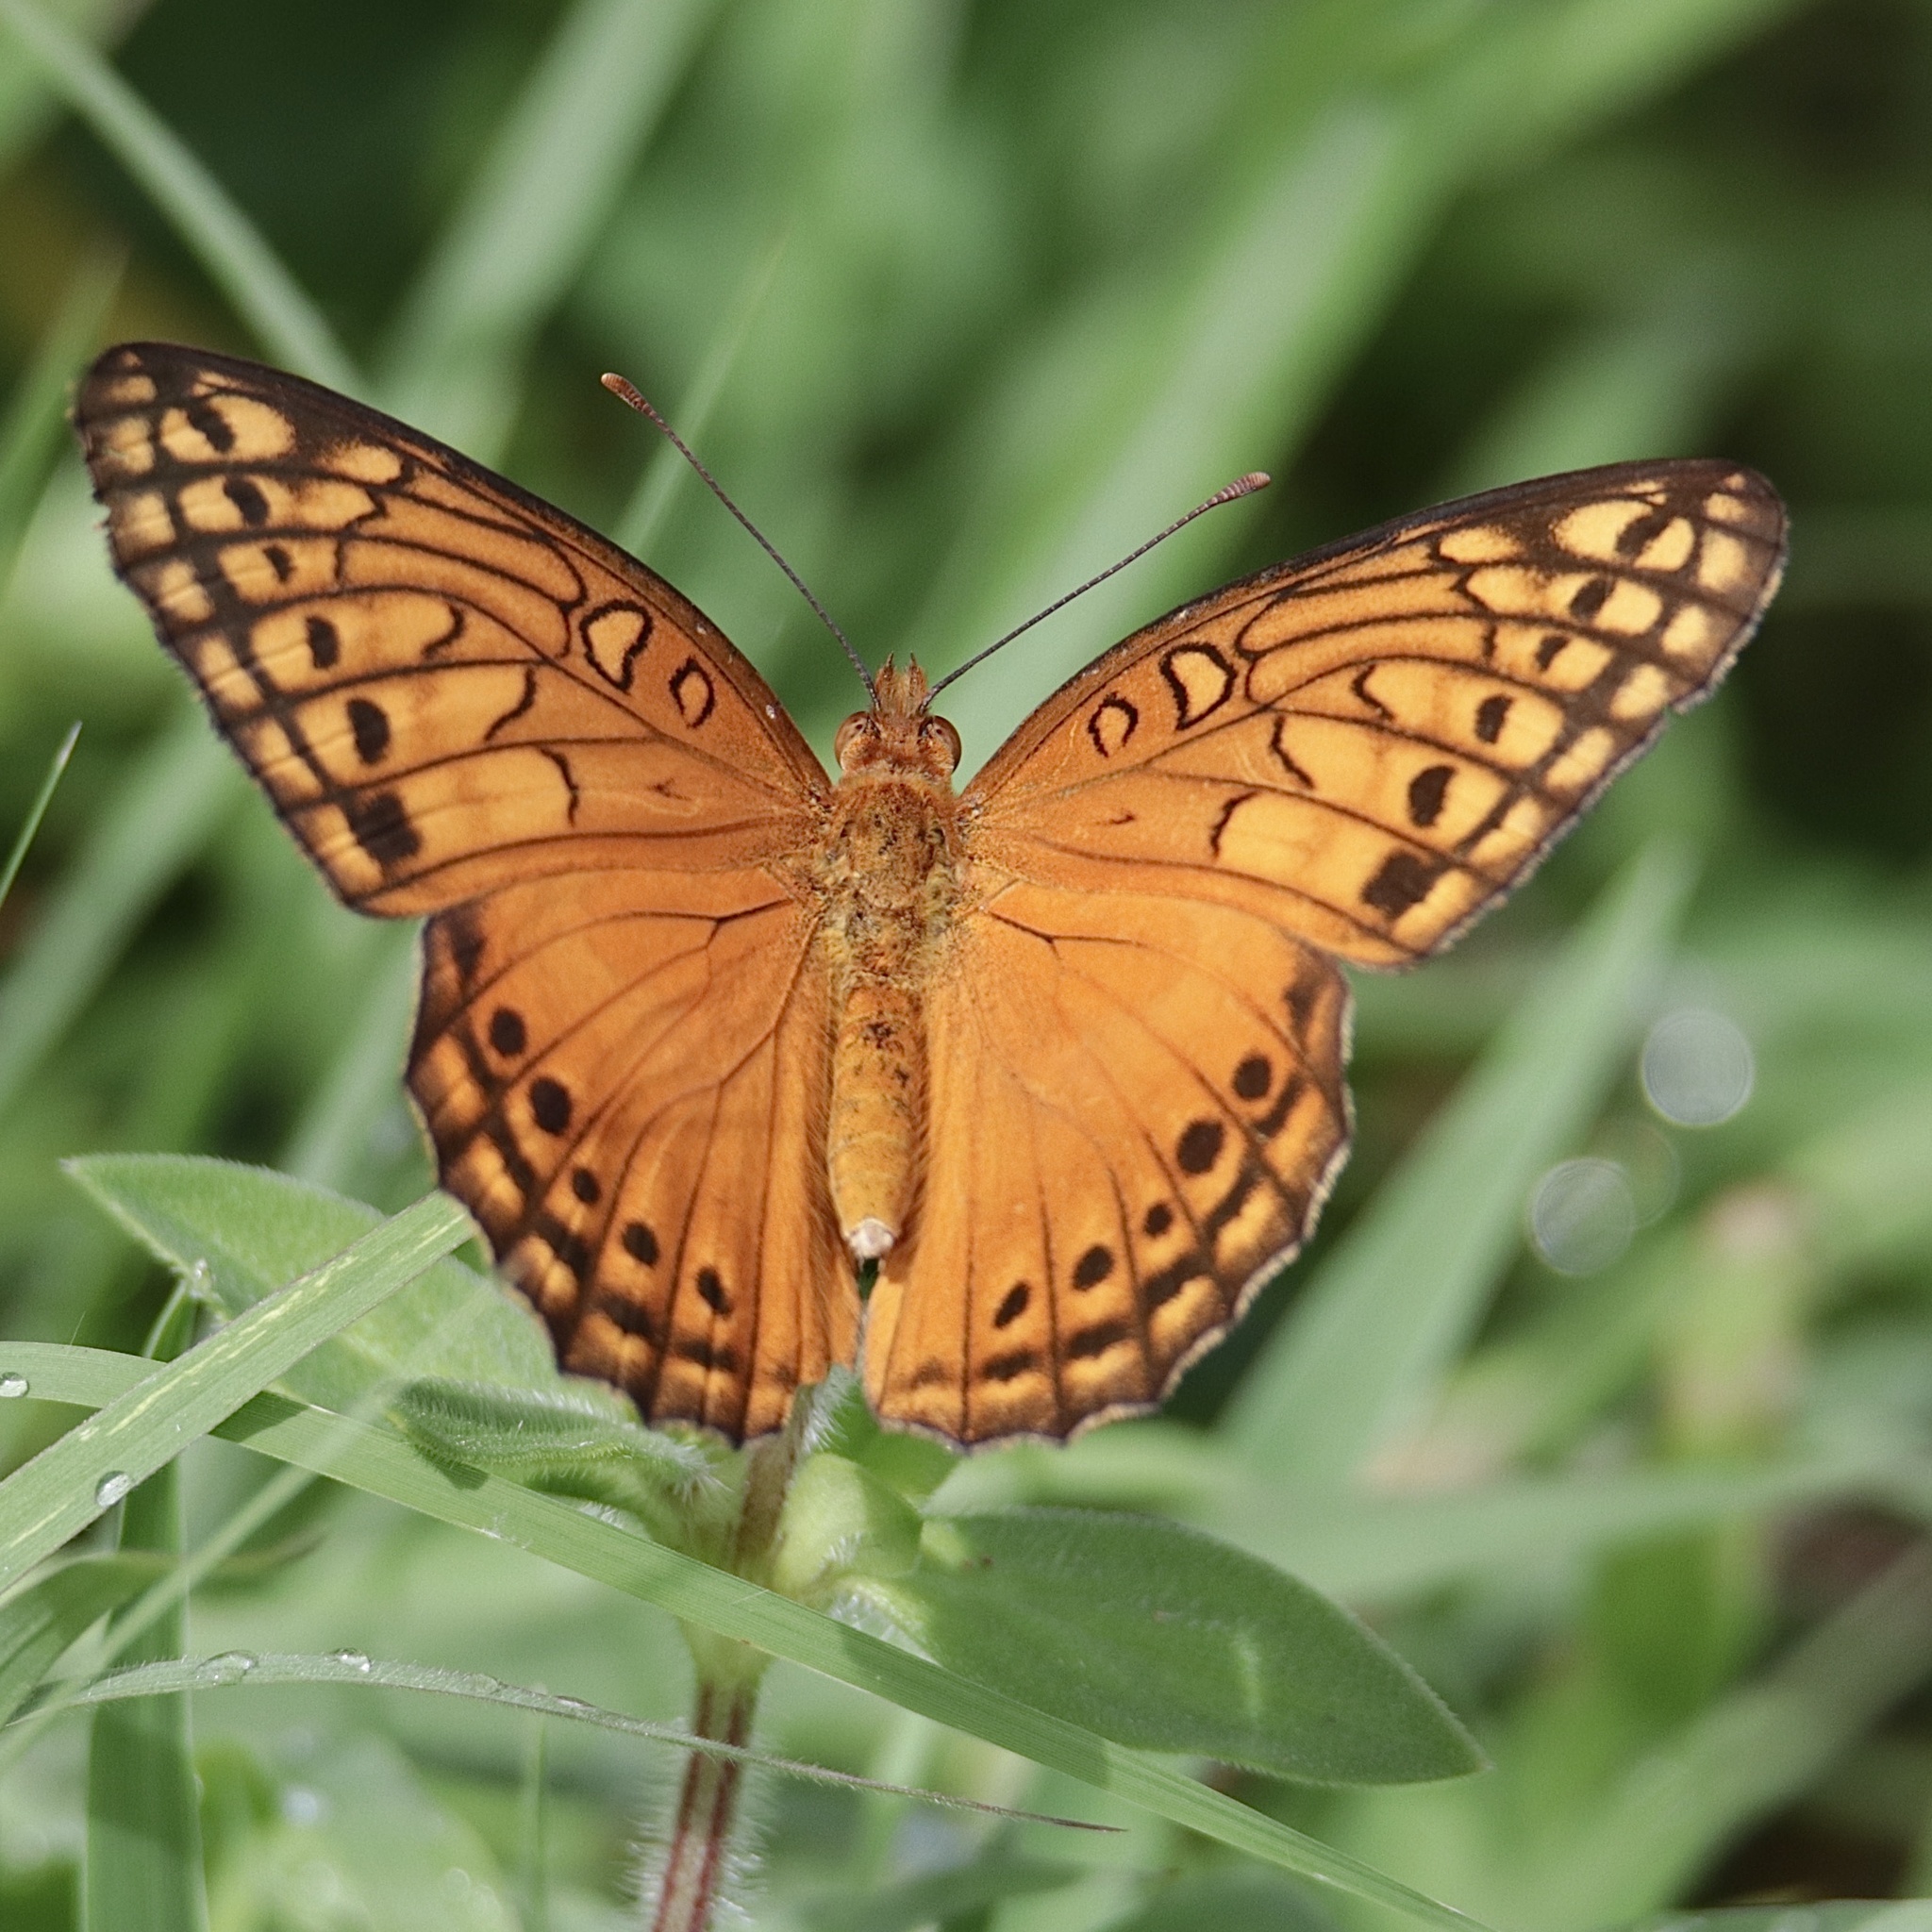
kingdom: Animalia
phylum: Arthropoda
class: Insecta
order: Lepidoptera
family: Nymphalidae
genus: Euptoieta
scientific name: Euptoieta hegesia
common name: Mexican fritillary
